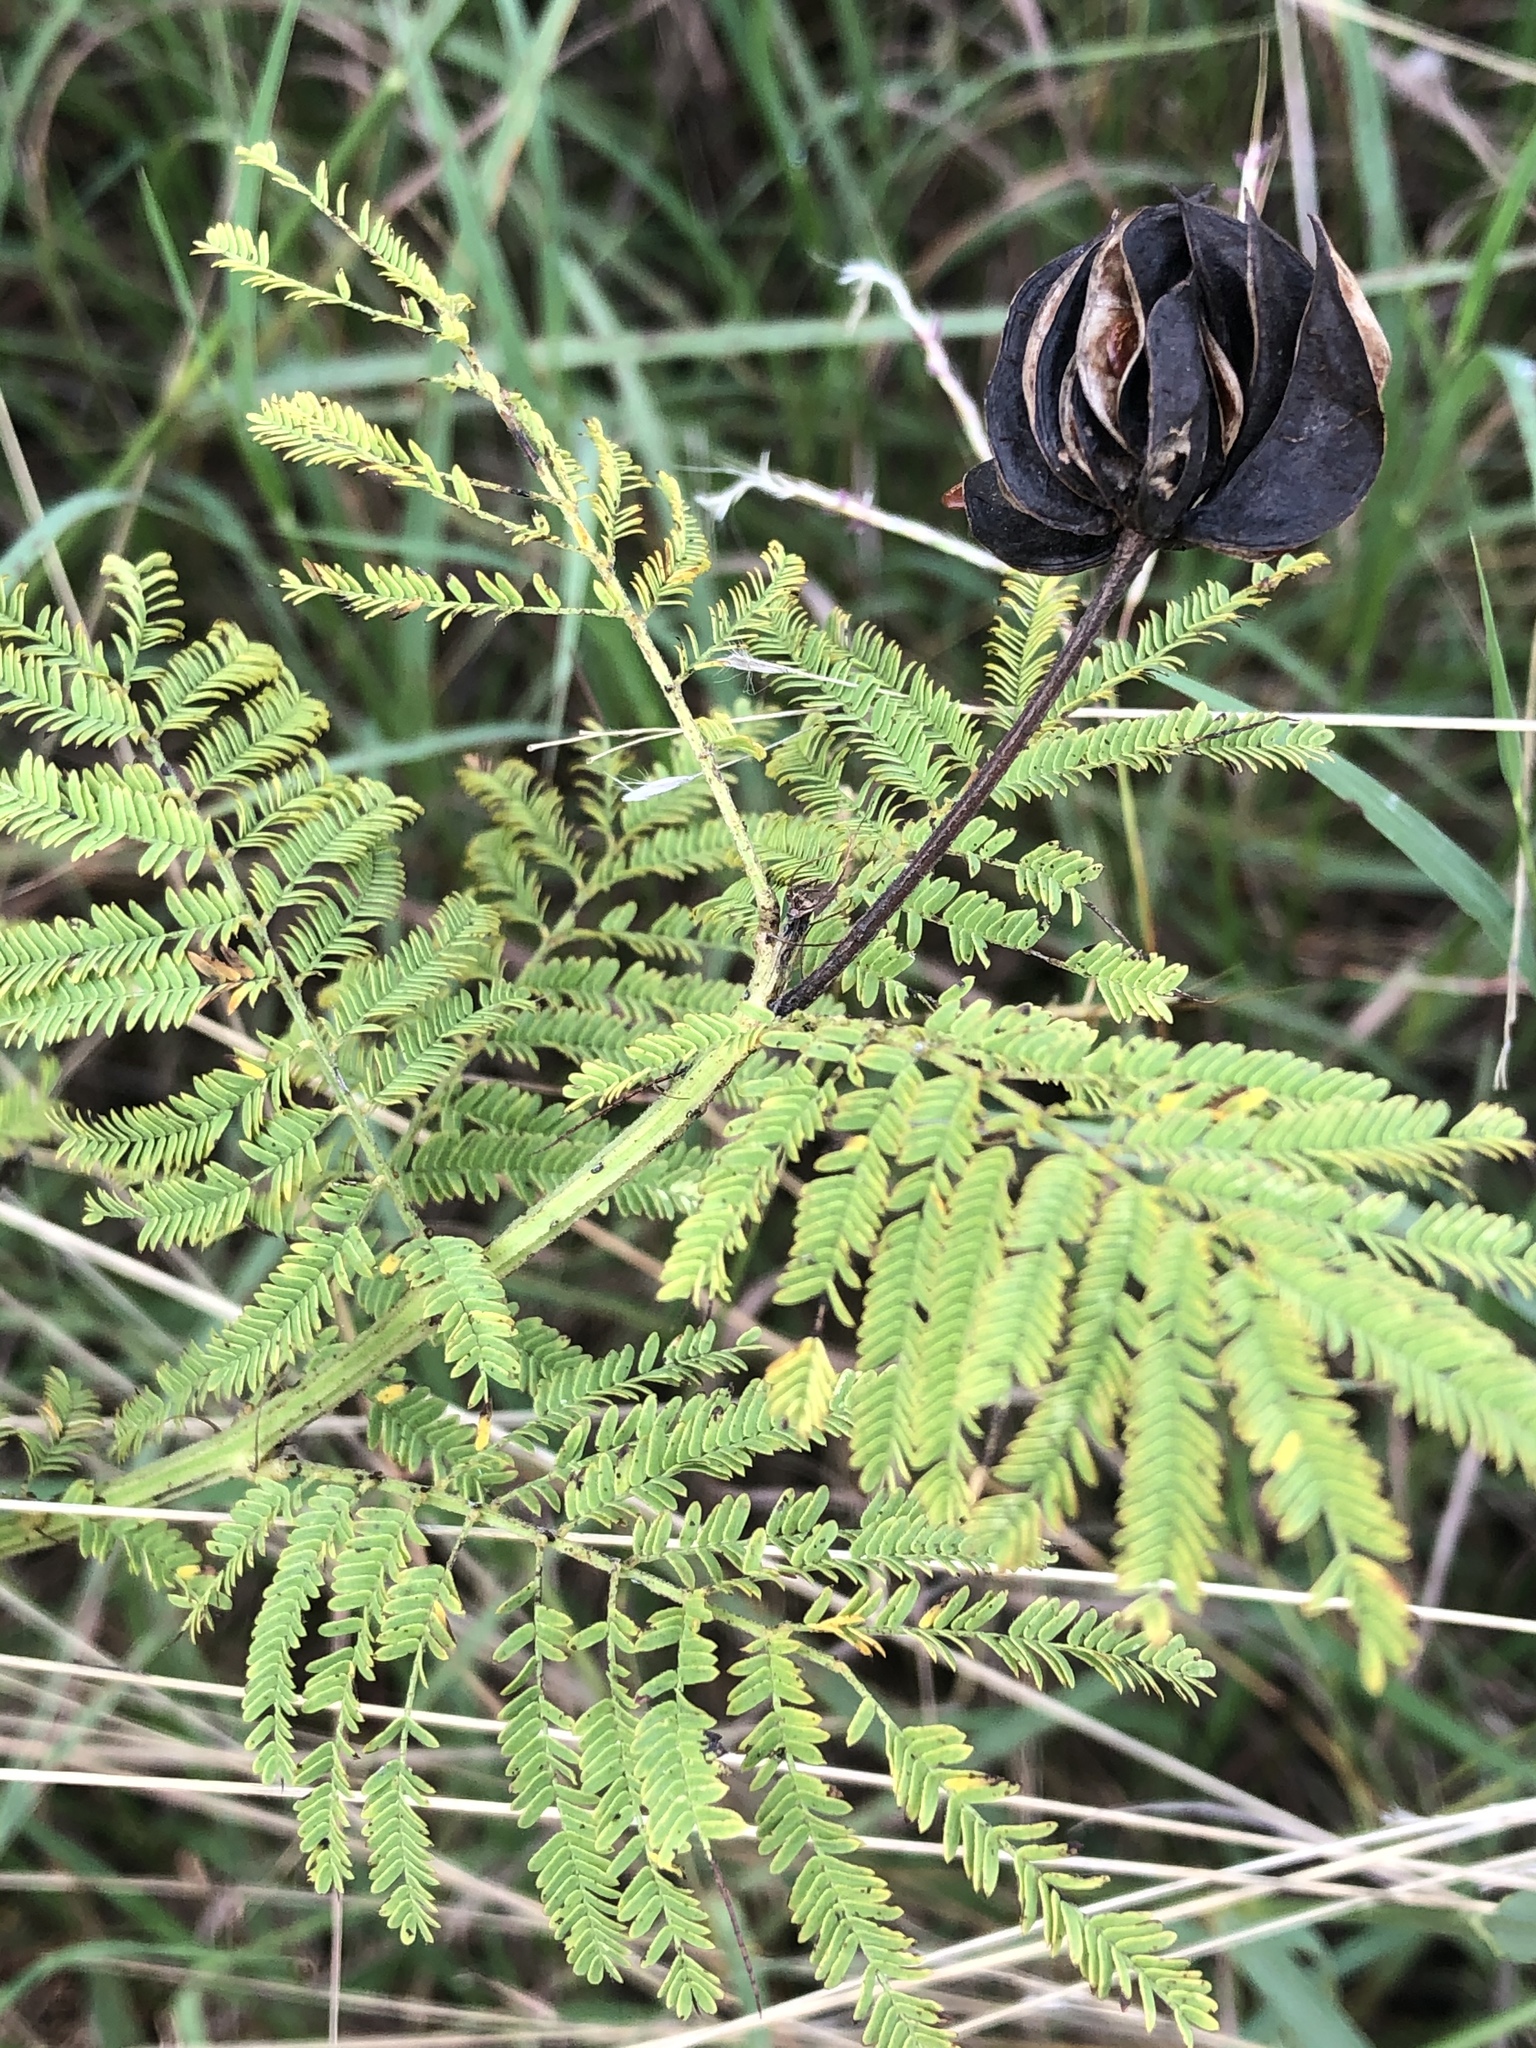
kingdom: Plantae
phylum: Tracheophyta
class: Magnoliopsida
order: Fabales
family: Fabaceae
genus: Desmanthus
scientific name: Desmanthus illinoensis
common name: Illinois bundle-flower
